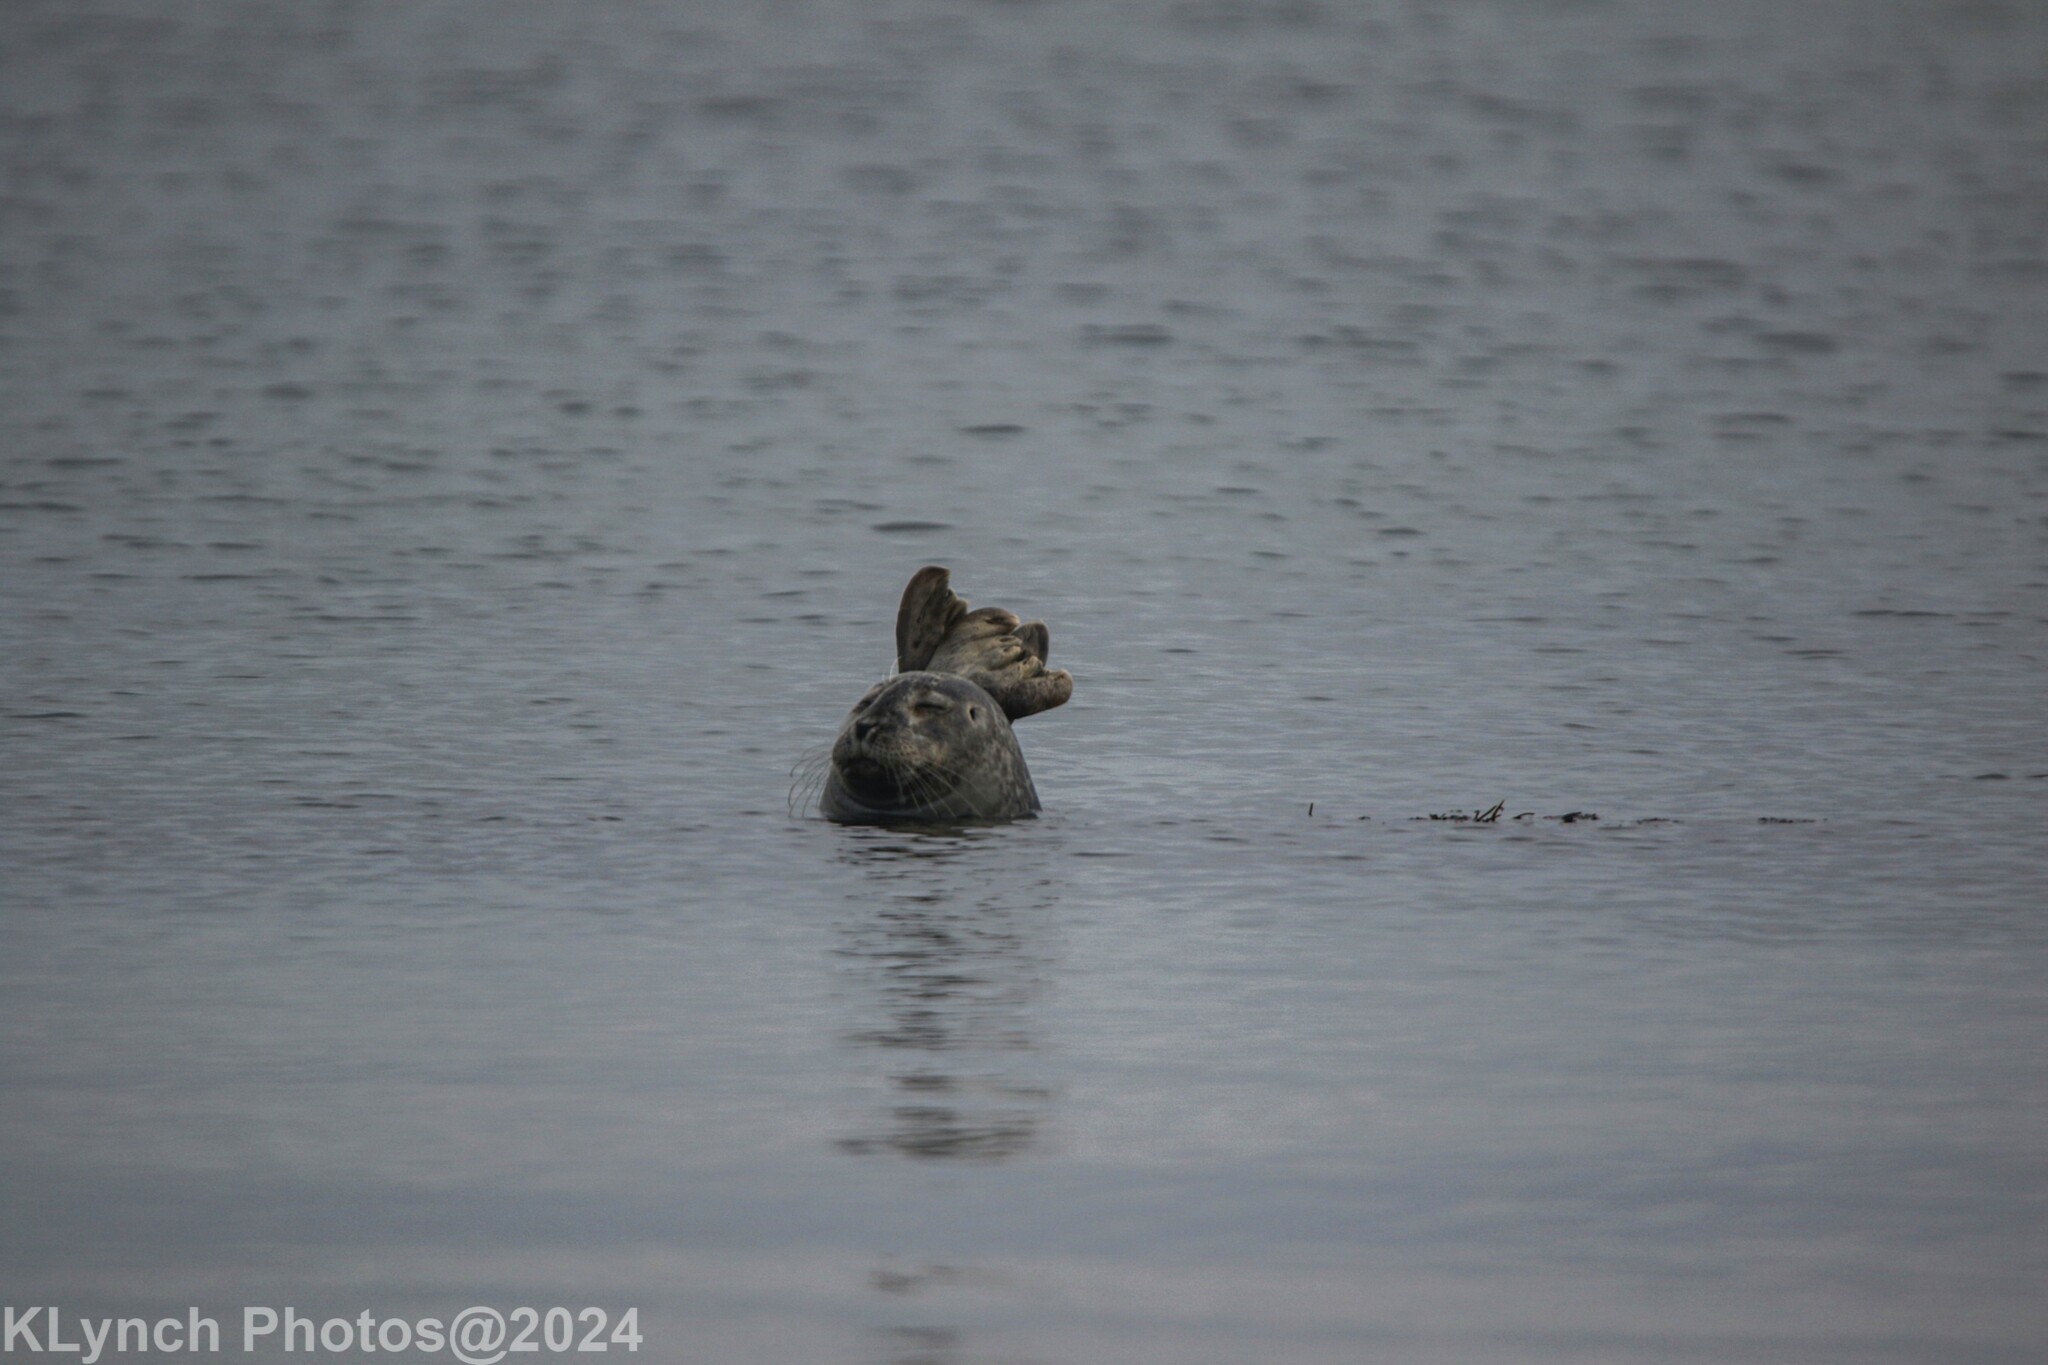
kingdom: Animalia
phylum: Chordata
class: Mammalia
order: Carnivora
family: Phocidae
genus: Phoca
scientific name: Phoca vitulina
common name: Harbor seal
